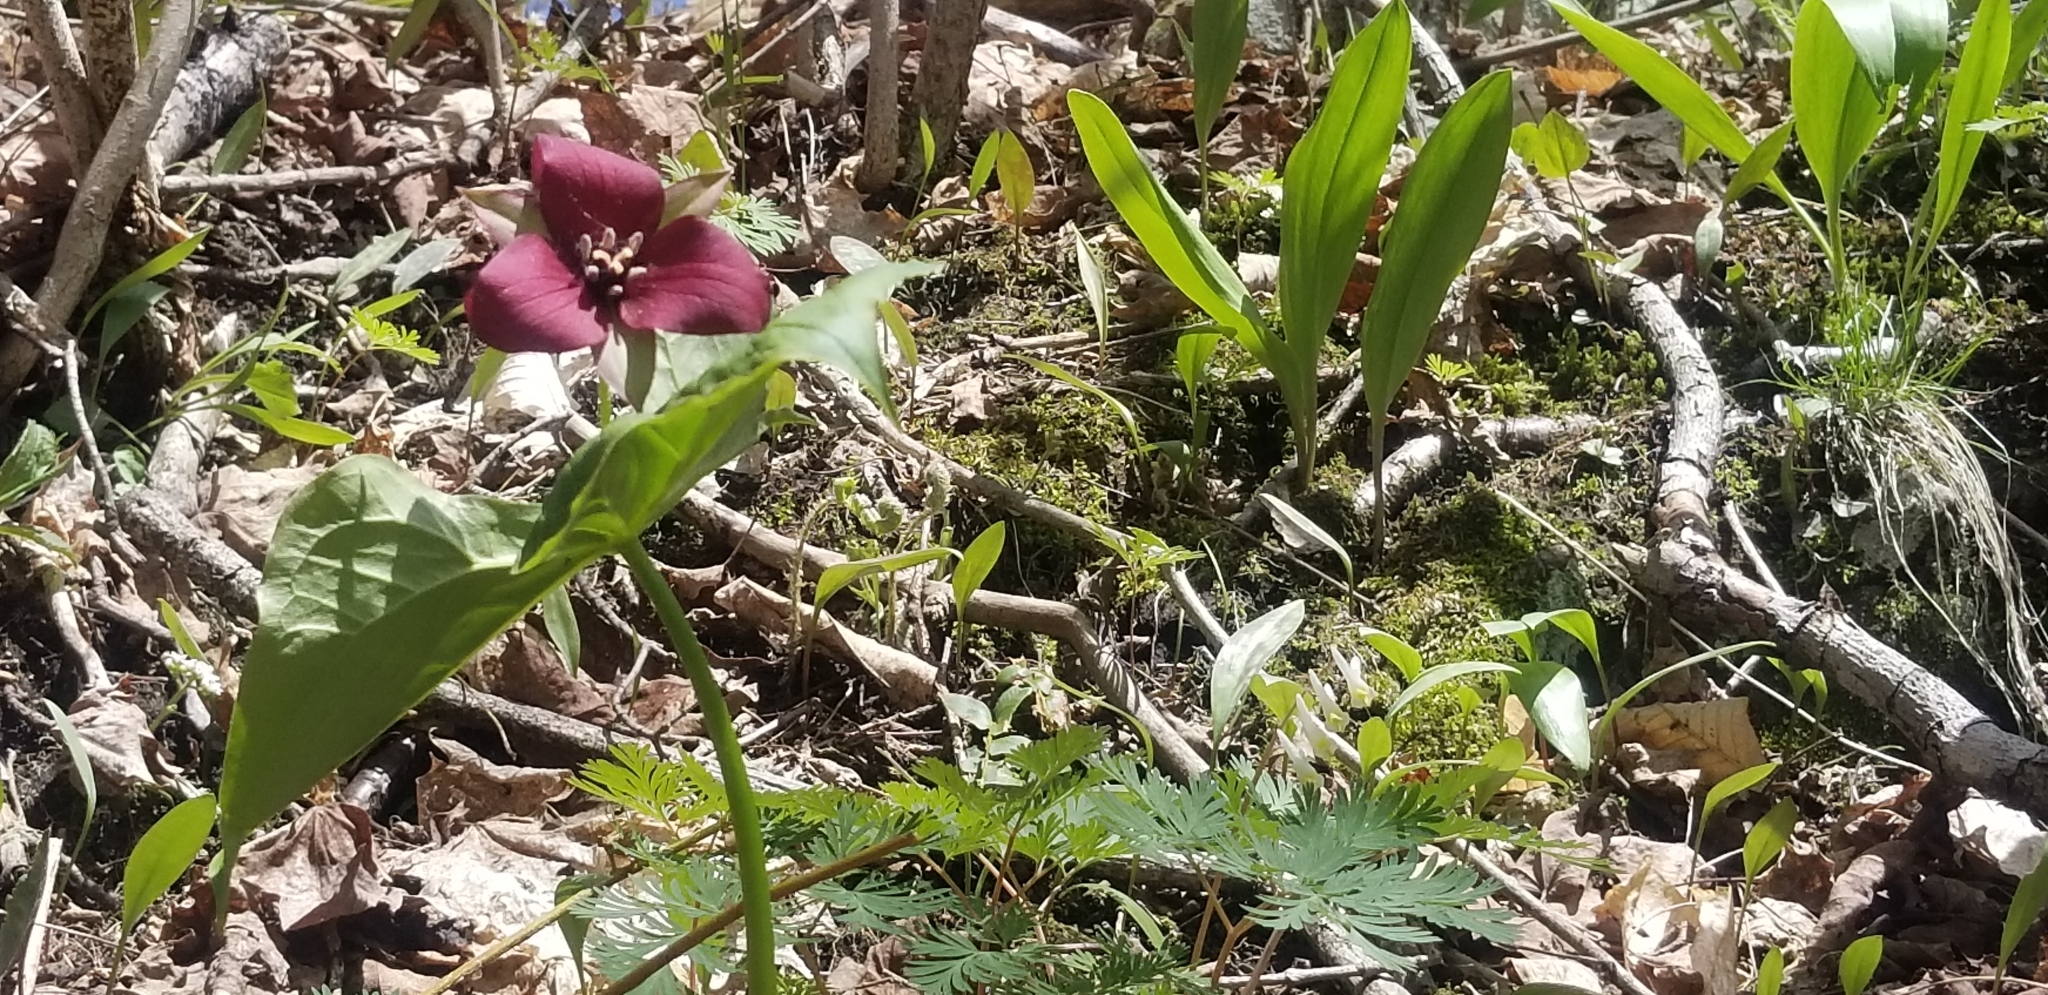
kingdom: Plantae
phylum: Tracheophyta
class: Liliopsida
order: Liliales
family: Melanthiaceae
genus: Trillium
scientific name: Trillium erectum
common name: Purple trillium
